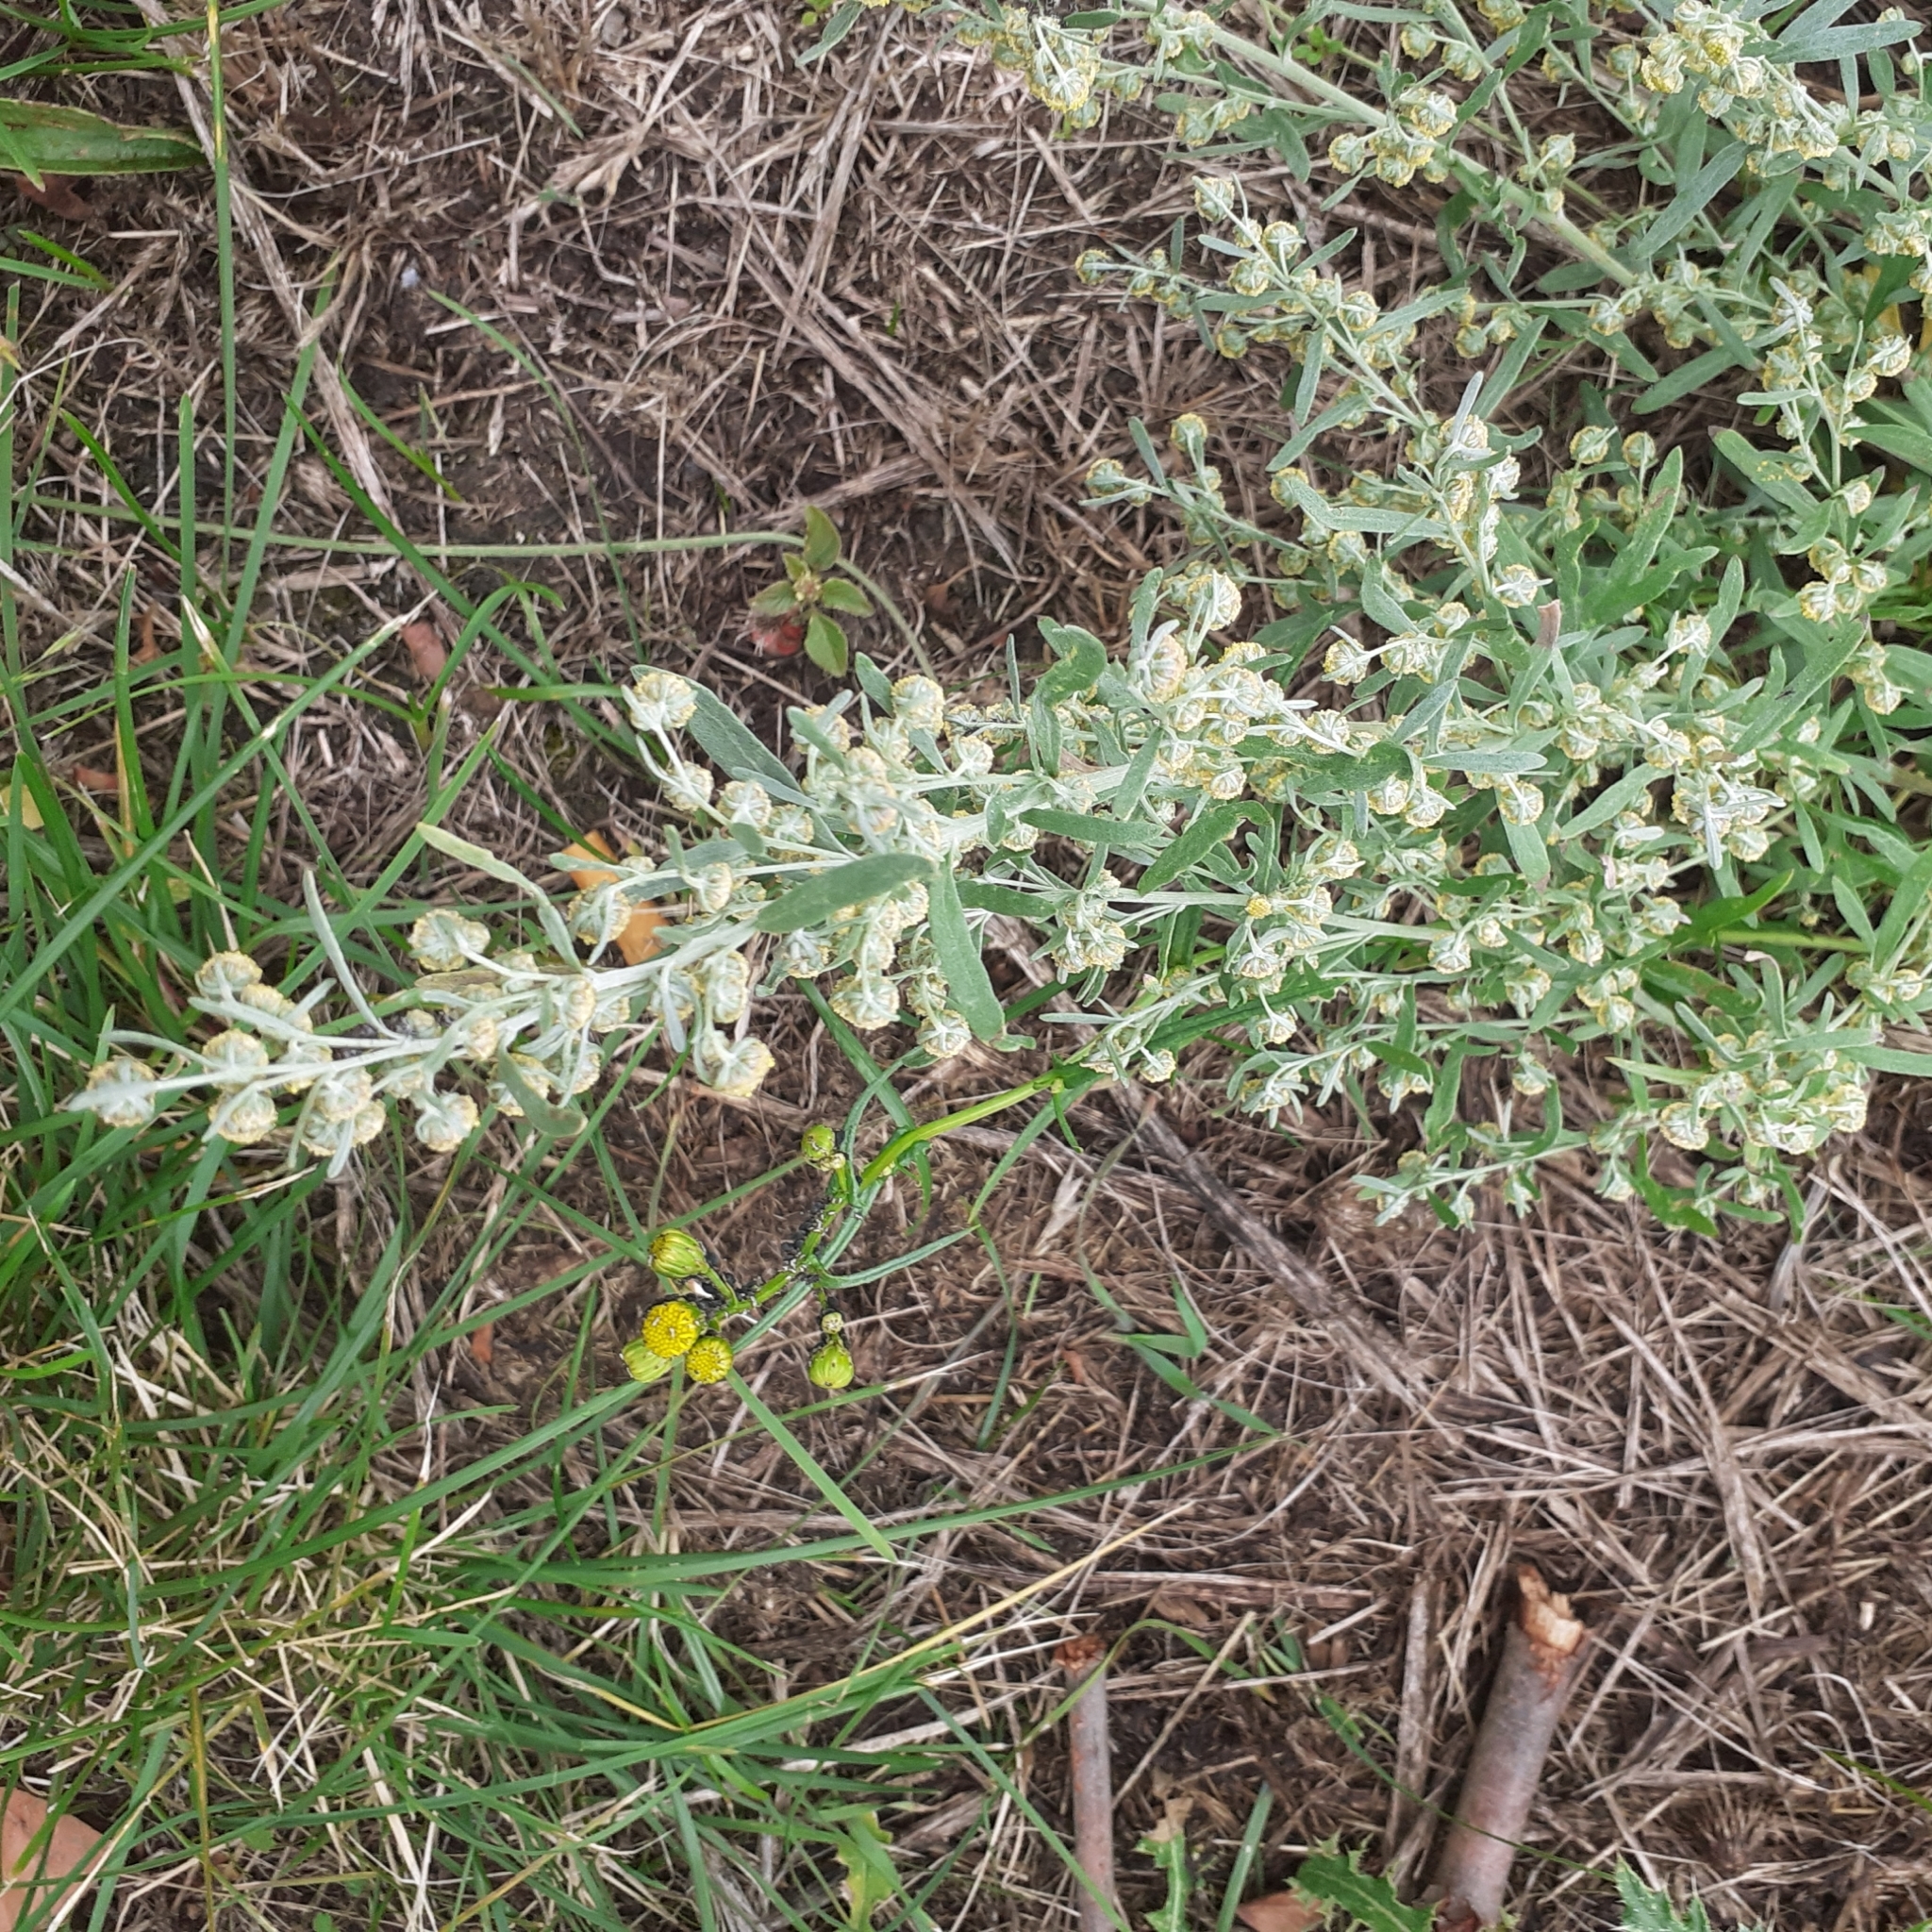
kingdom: Plantae
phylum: Tracheophyta
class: Magnoliopsida
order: Asterales
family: Asteraceae
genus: Artemisia
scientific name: Artemisia absinthium
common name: Wormwood
